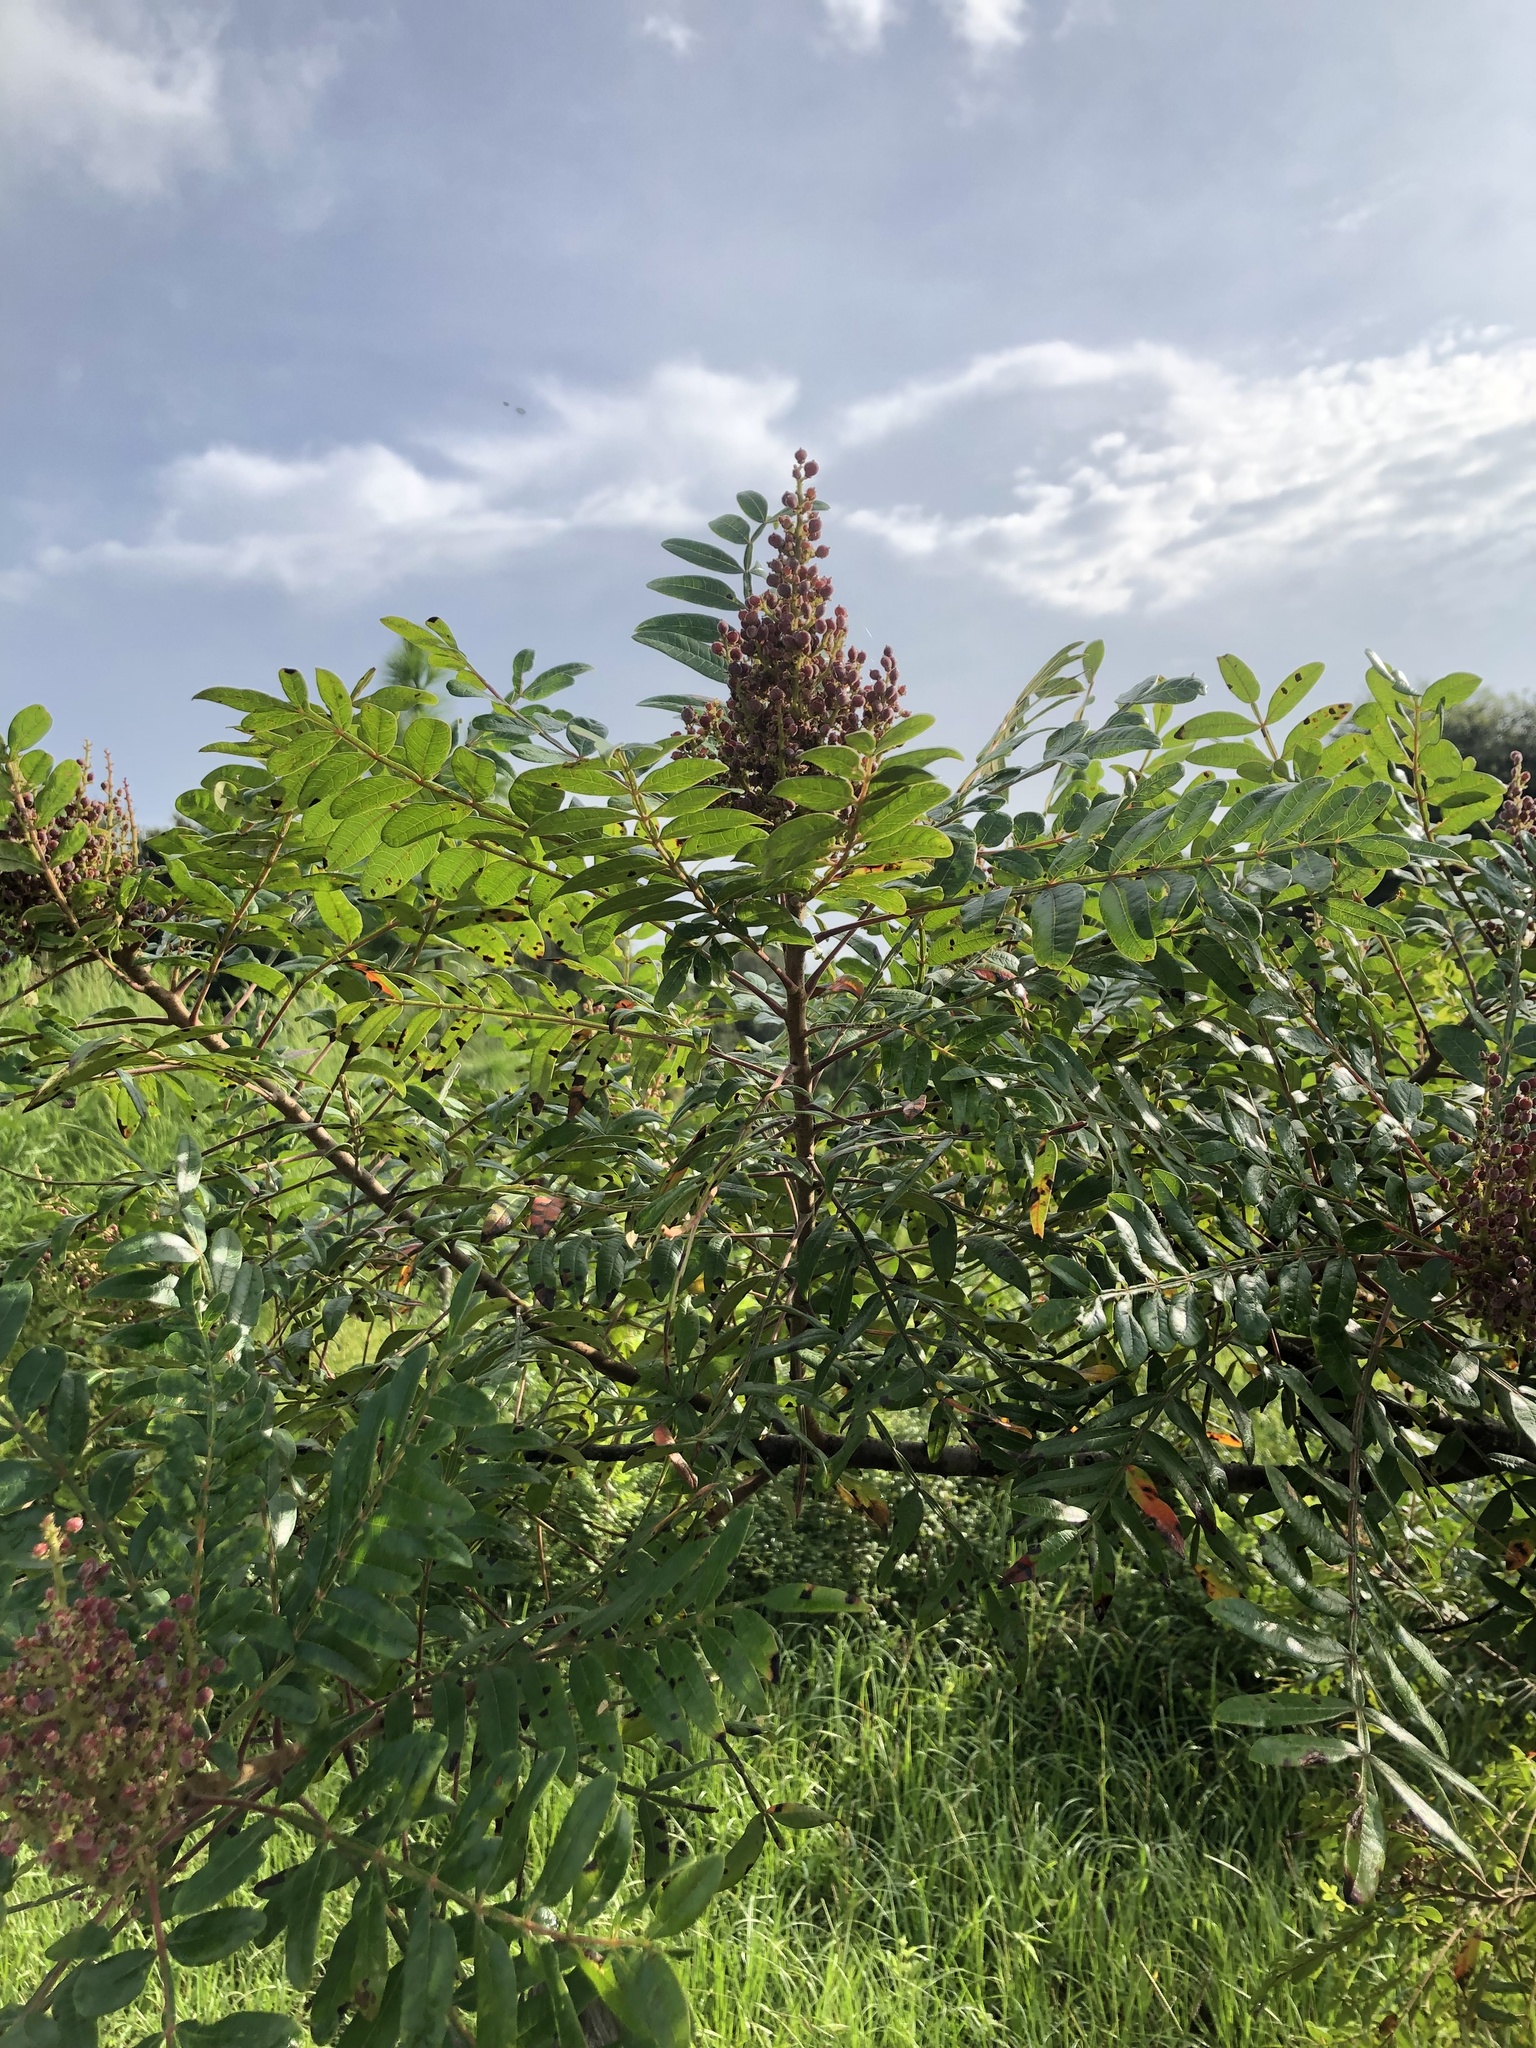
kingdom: Plantae
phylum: Tracheophyta
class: Magnoliopsida
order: Sapindales
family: Anacardiaceae
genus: Rhus
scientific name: Rhus copallina
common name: Shining sumac
